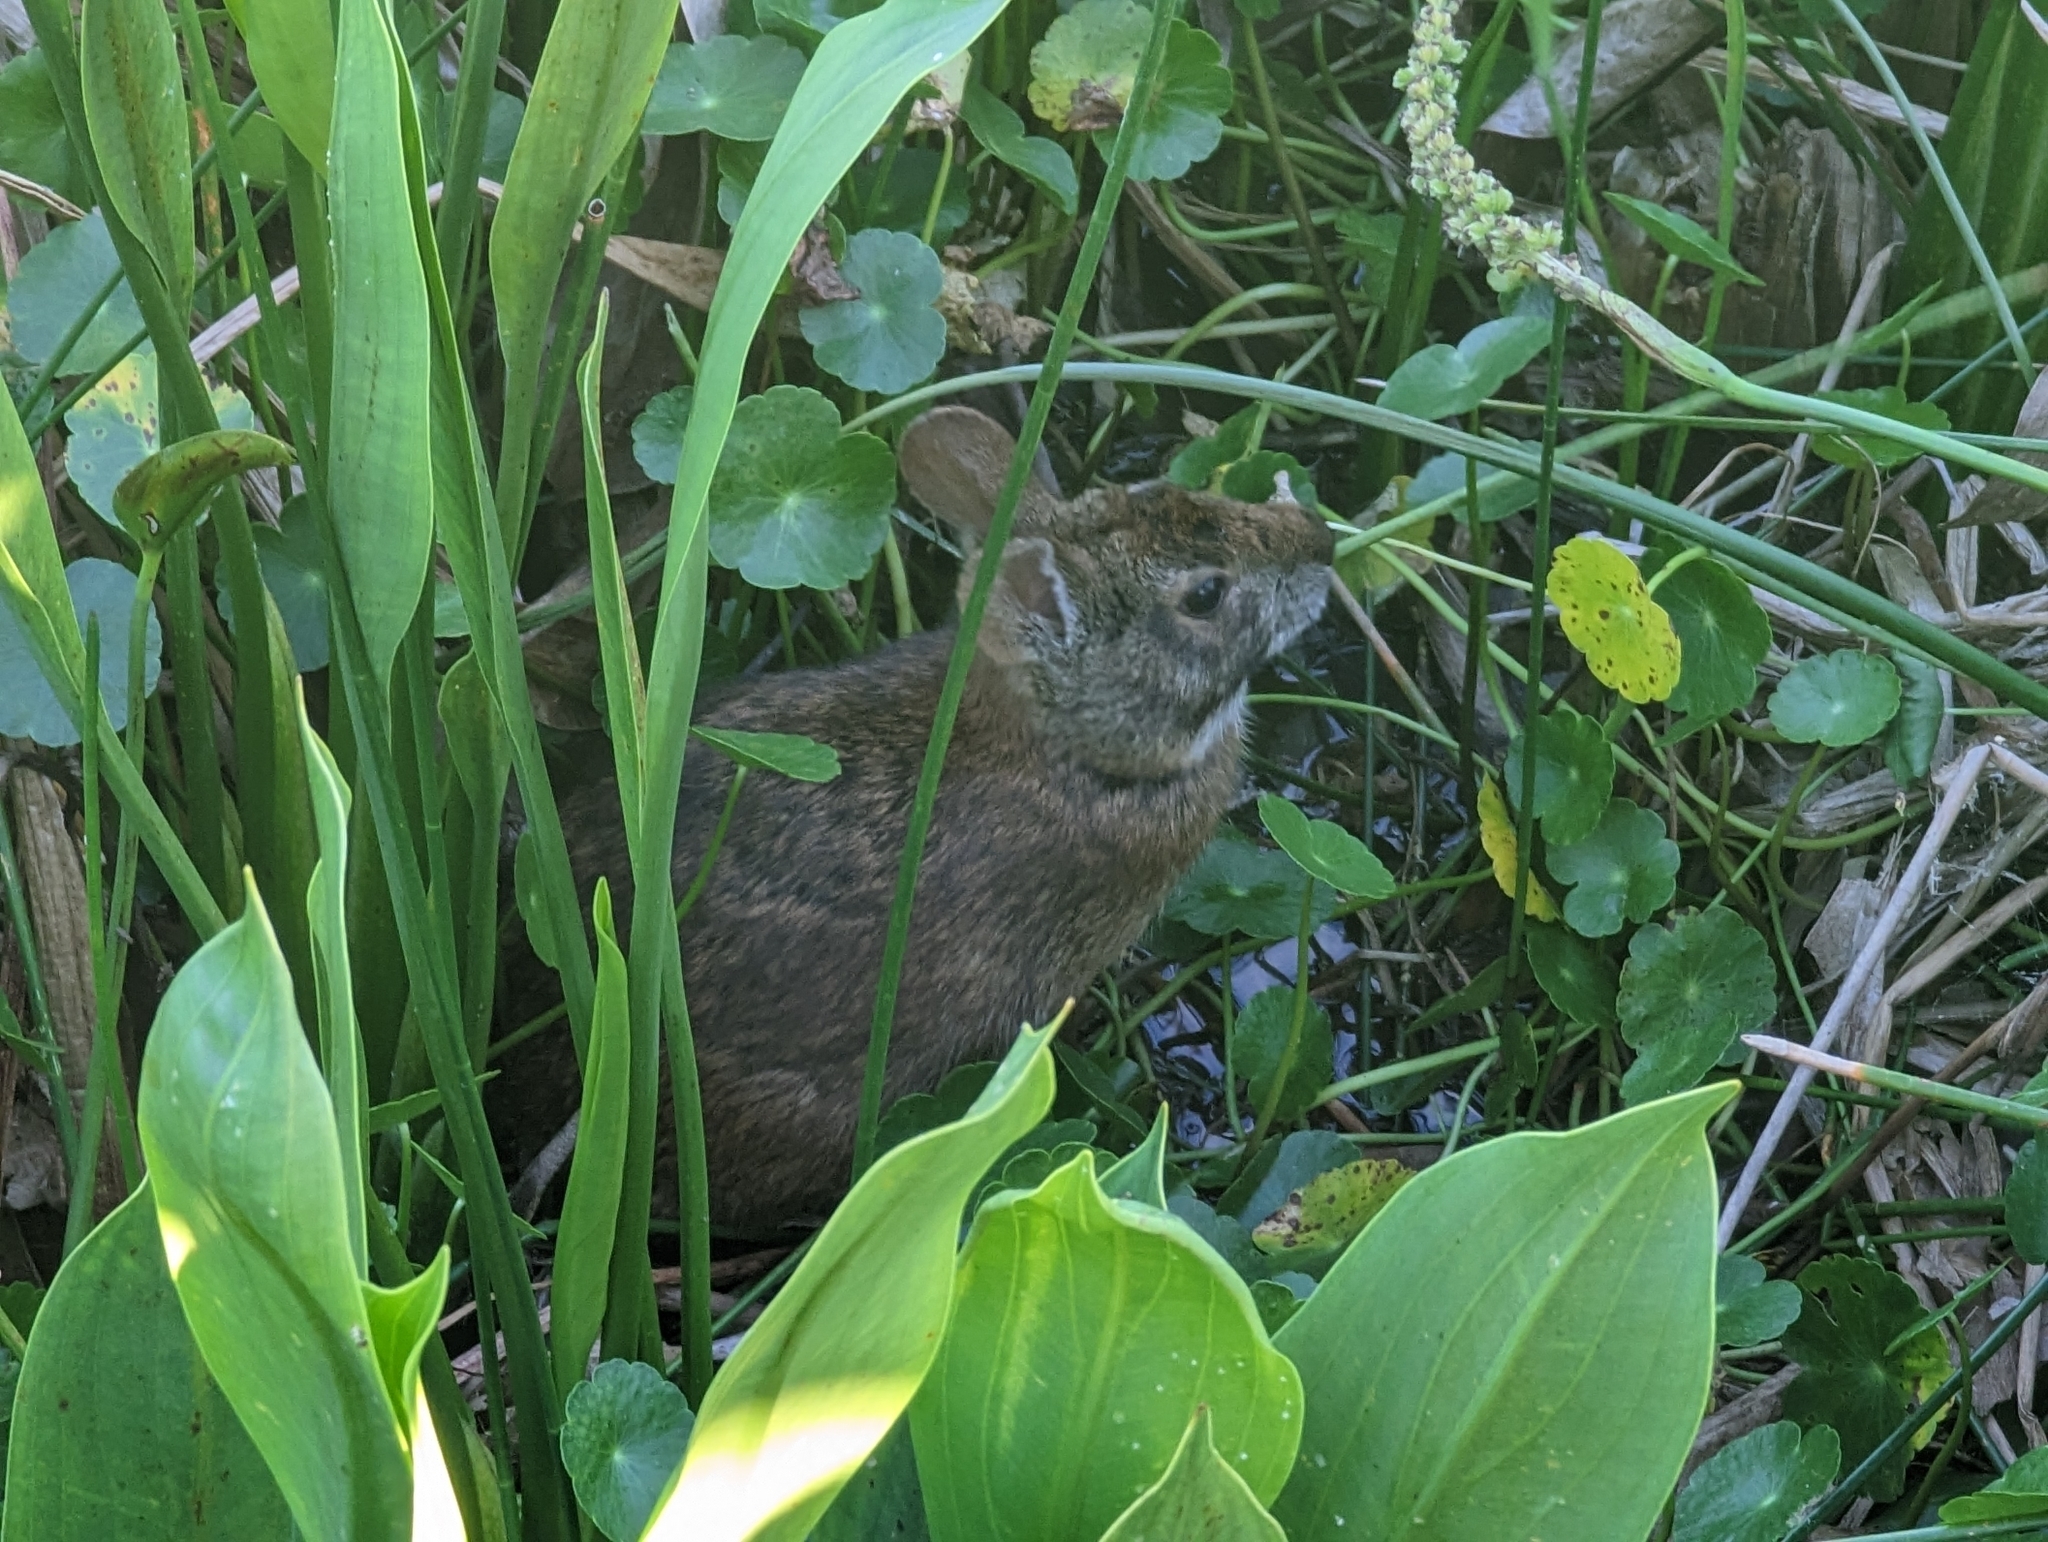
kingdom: Animalia
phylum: Chordata
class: Mammalia
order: Lagomorpha
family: Leporidae
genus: Sylvilagus
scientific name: Sylvilagus palustris
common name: Marsh rabbit
